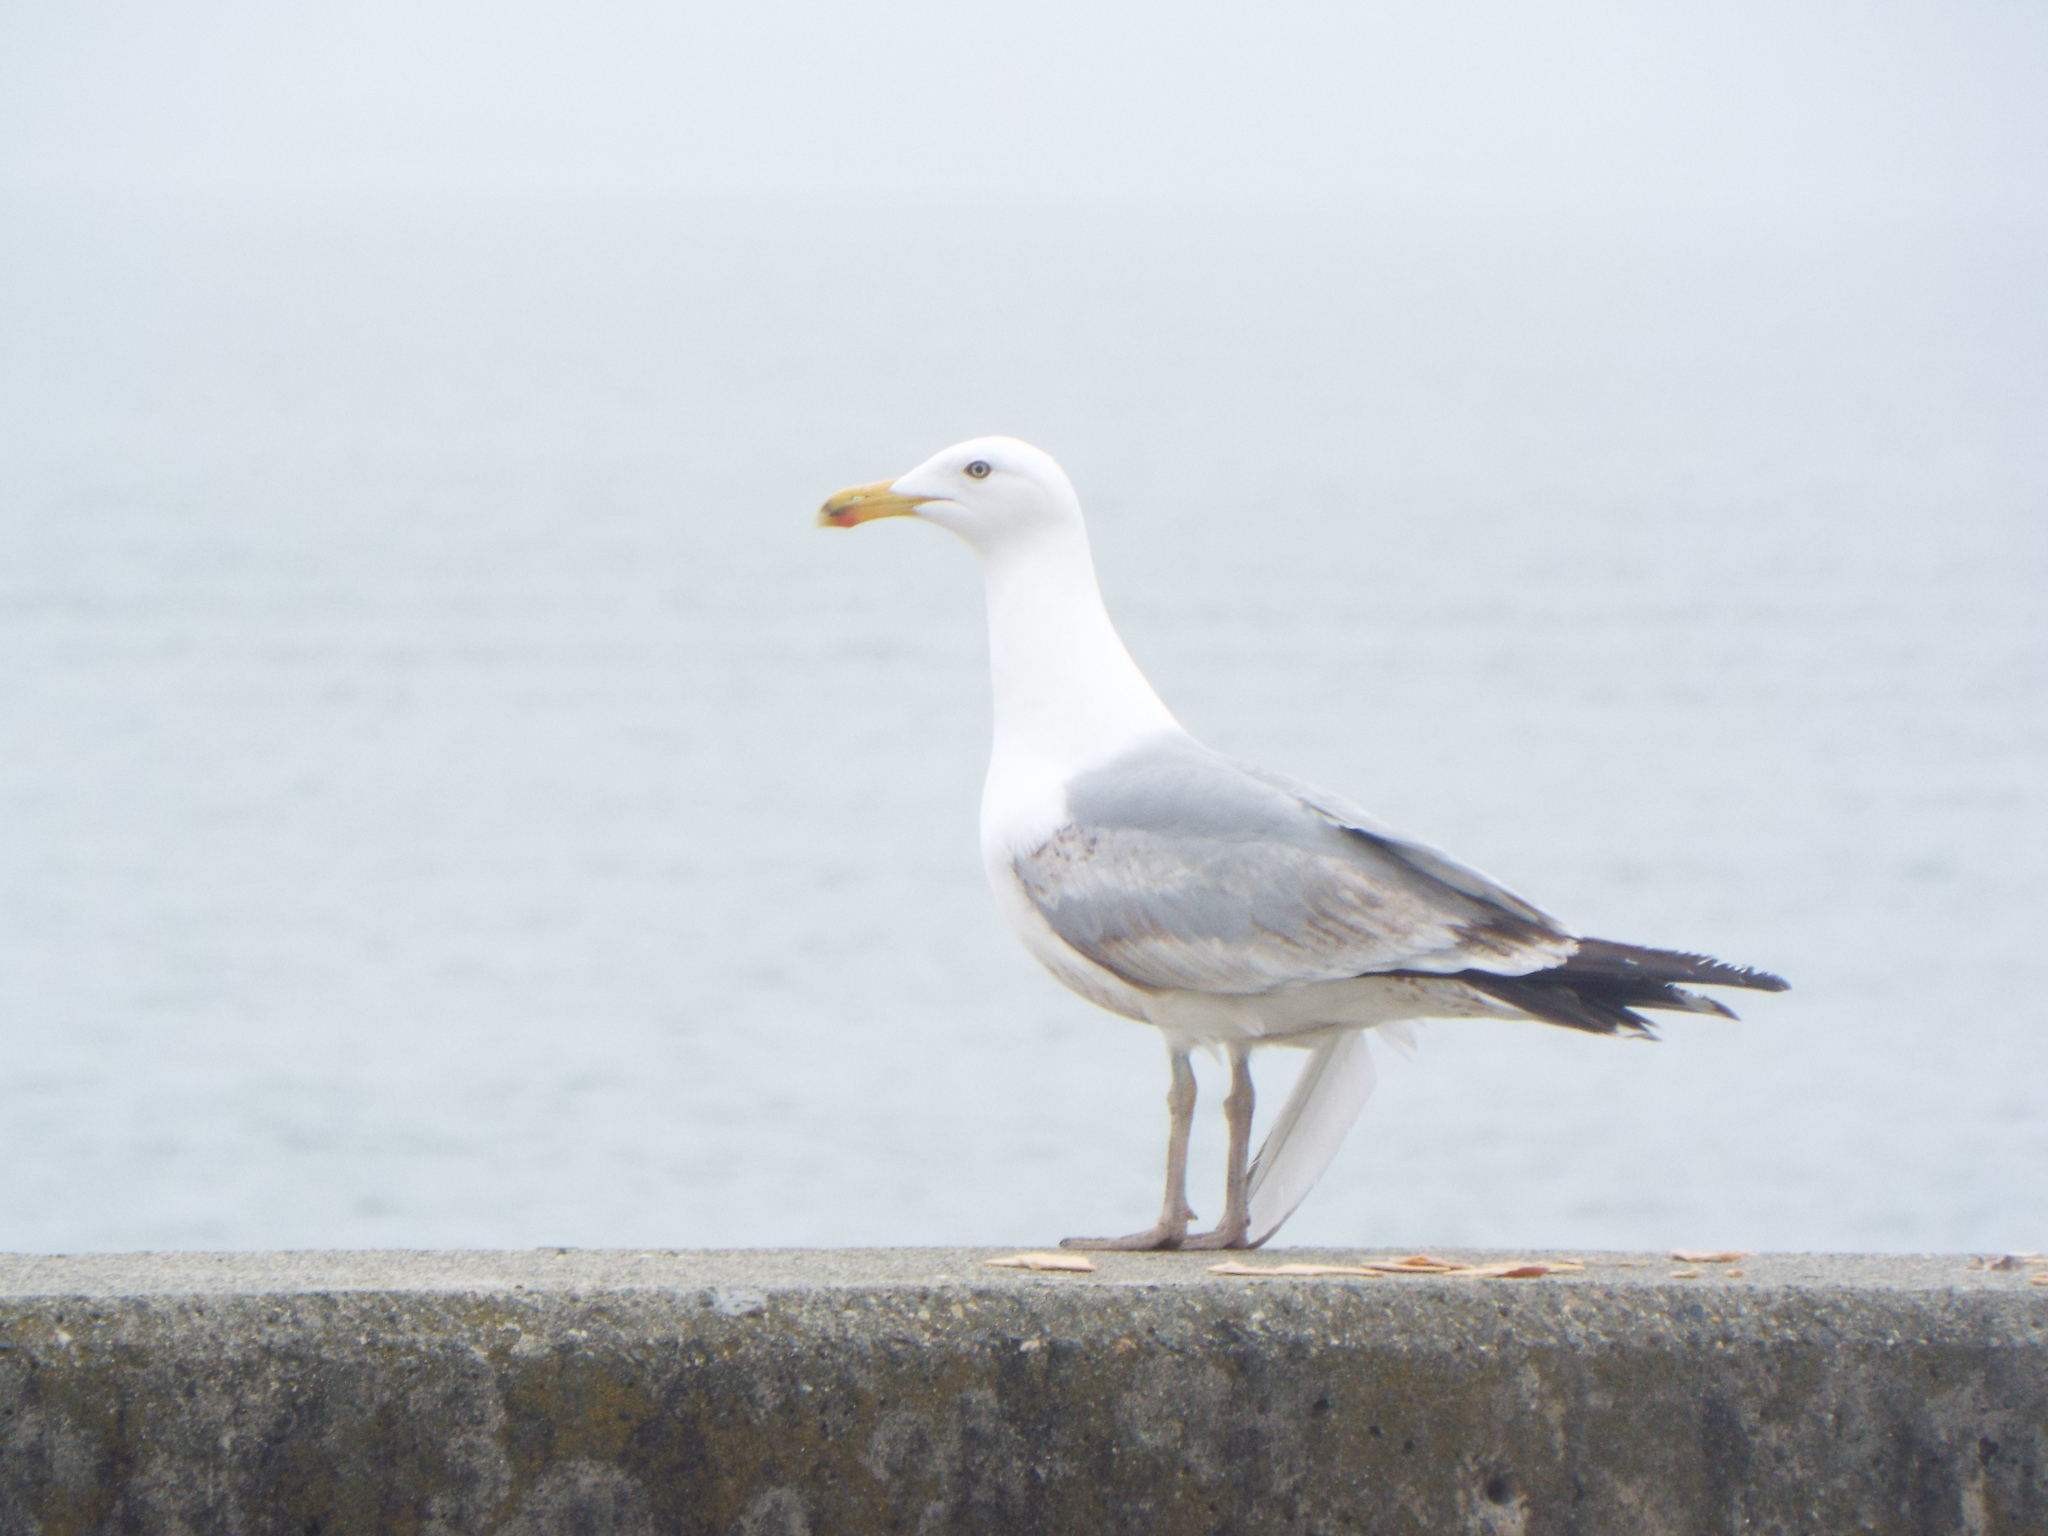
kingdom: Animalia
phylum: Chordata
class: Aves
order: Charadriiformes
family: Laridae
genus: Larus
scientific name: Larus argentatus
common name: Herring gull
